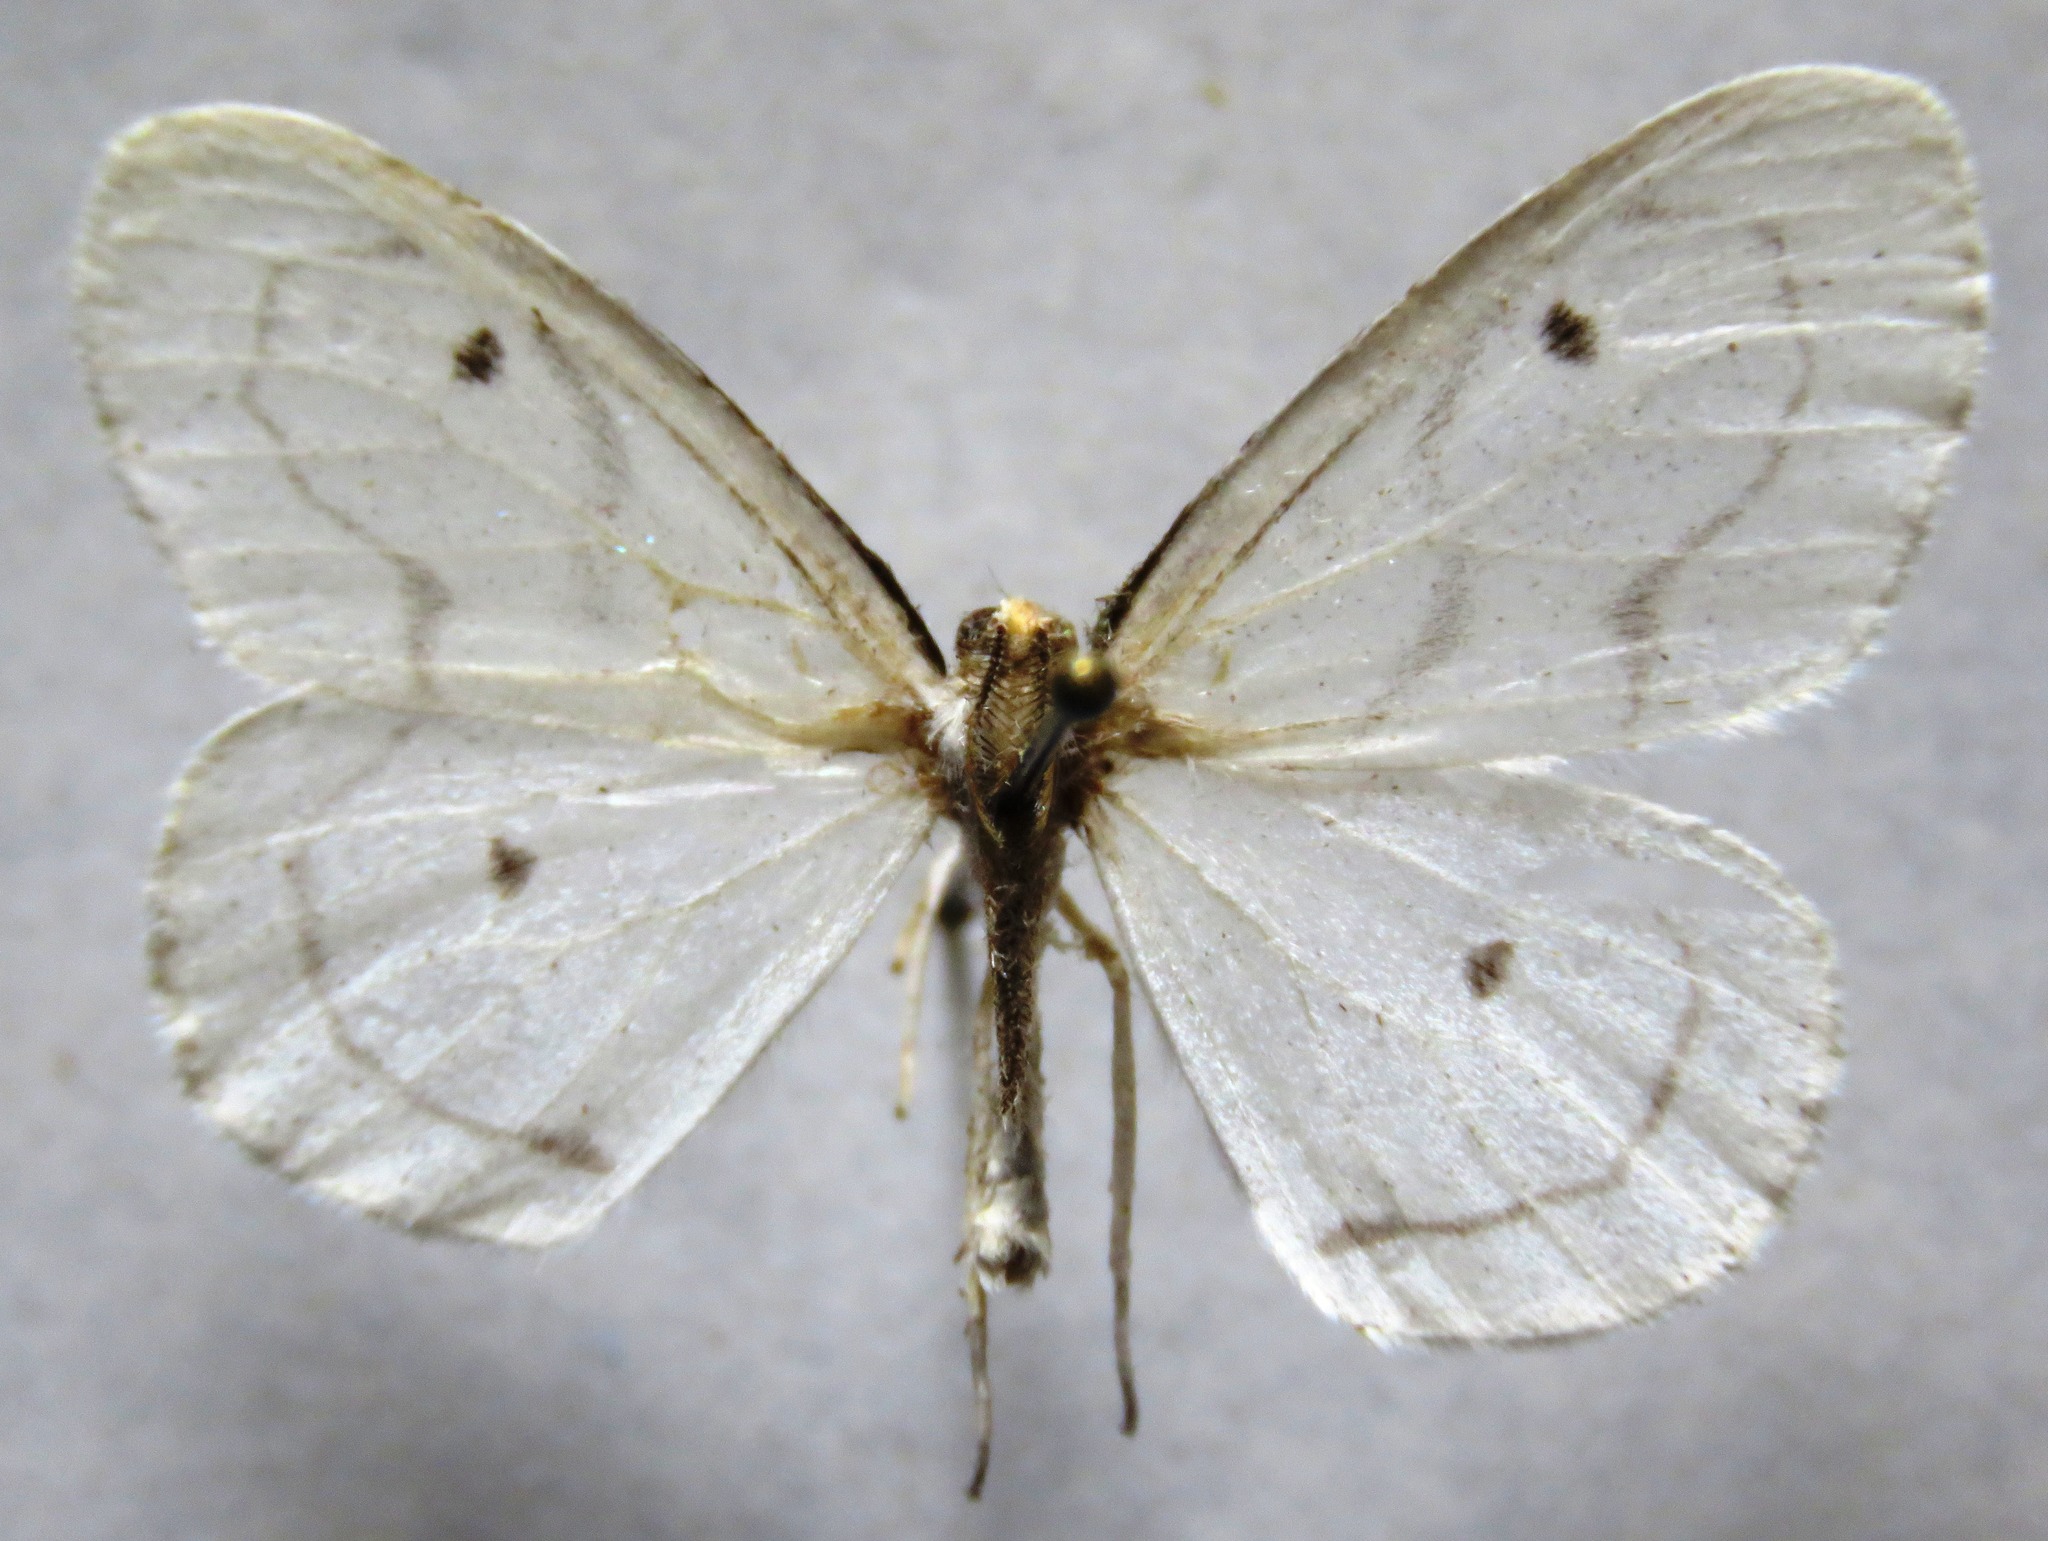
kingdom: Animalia
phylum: Arthropoda
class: Insecta
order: Lepidoptera
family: Geometridae
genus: Leucula
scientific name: Leucula meganira
